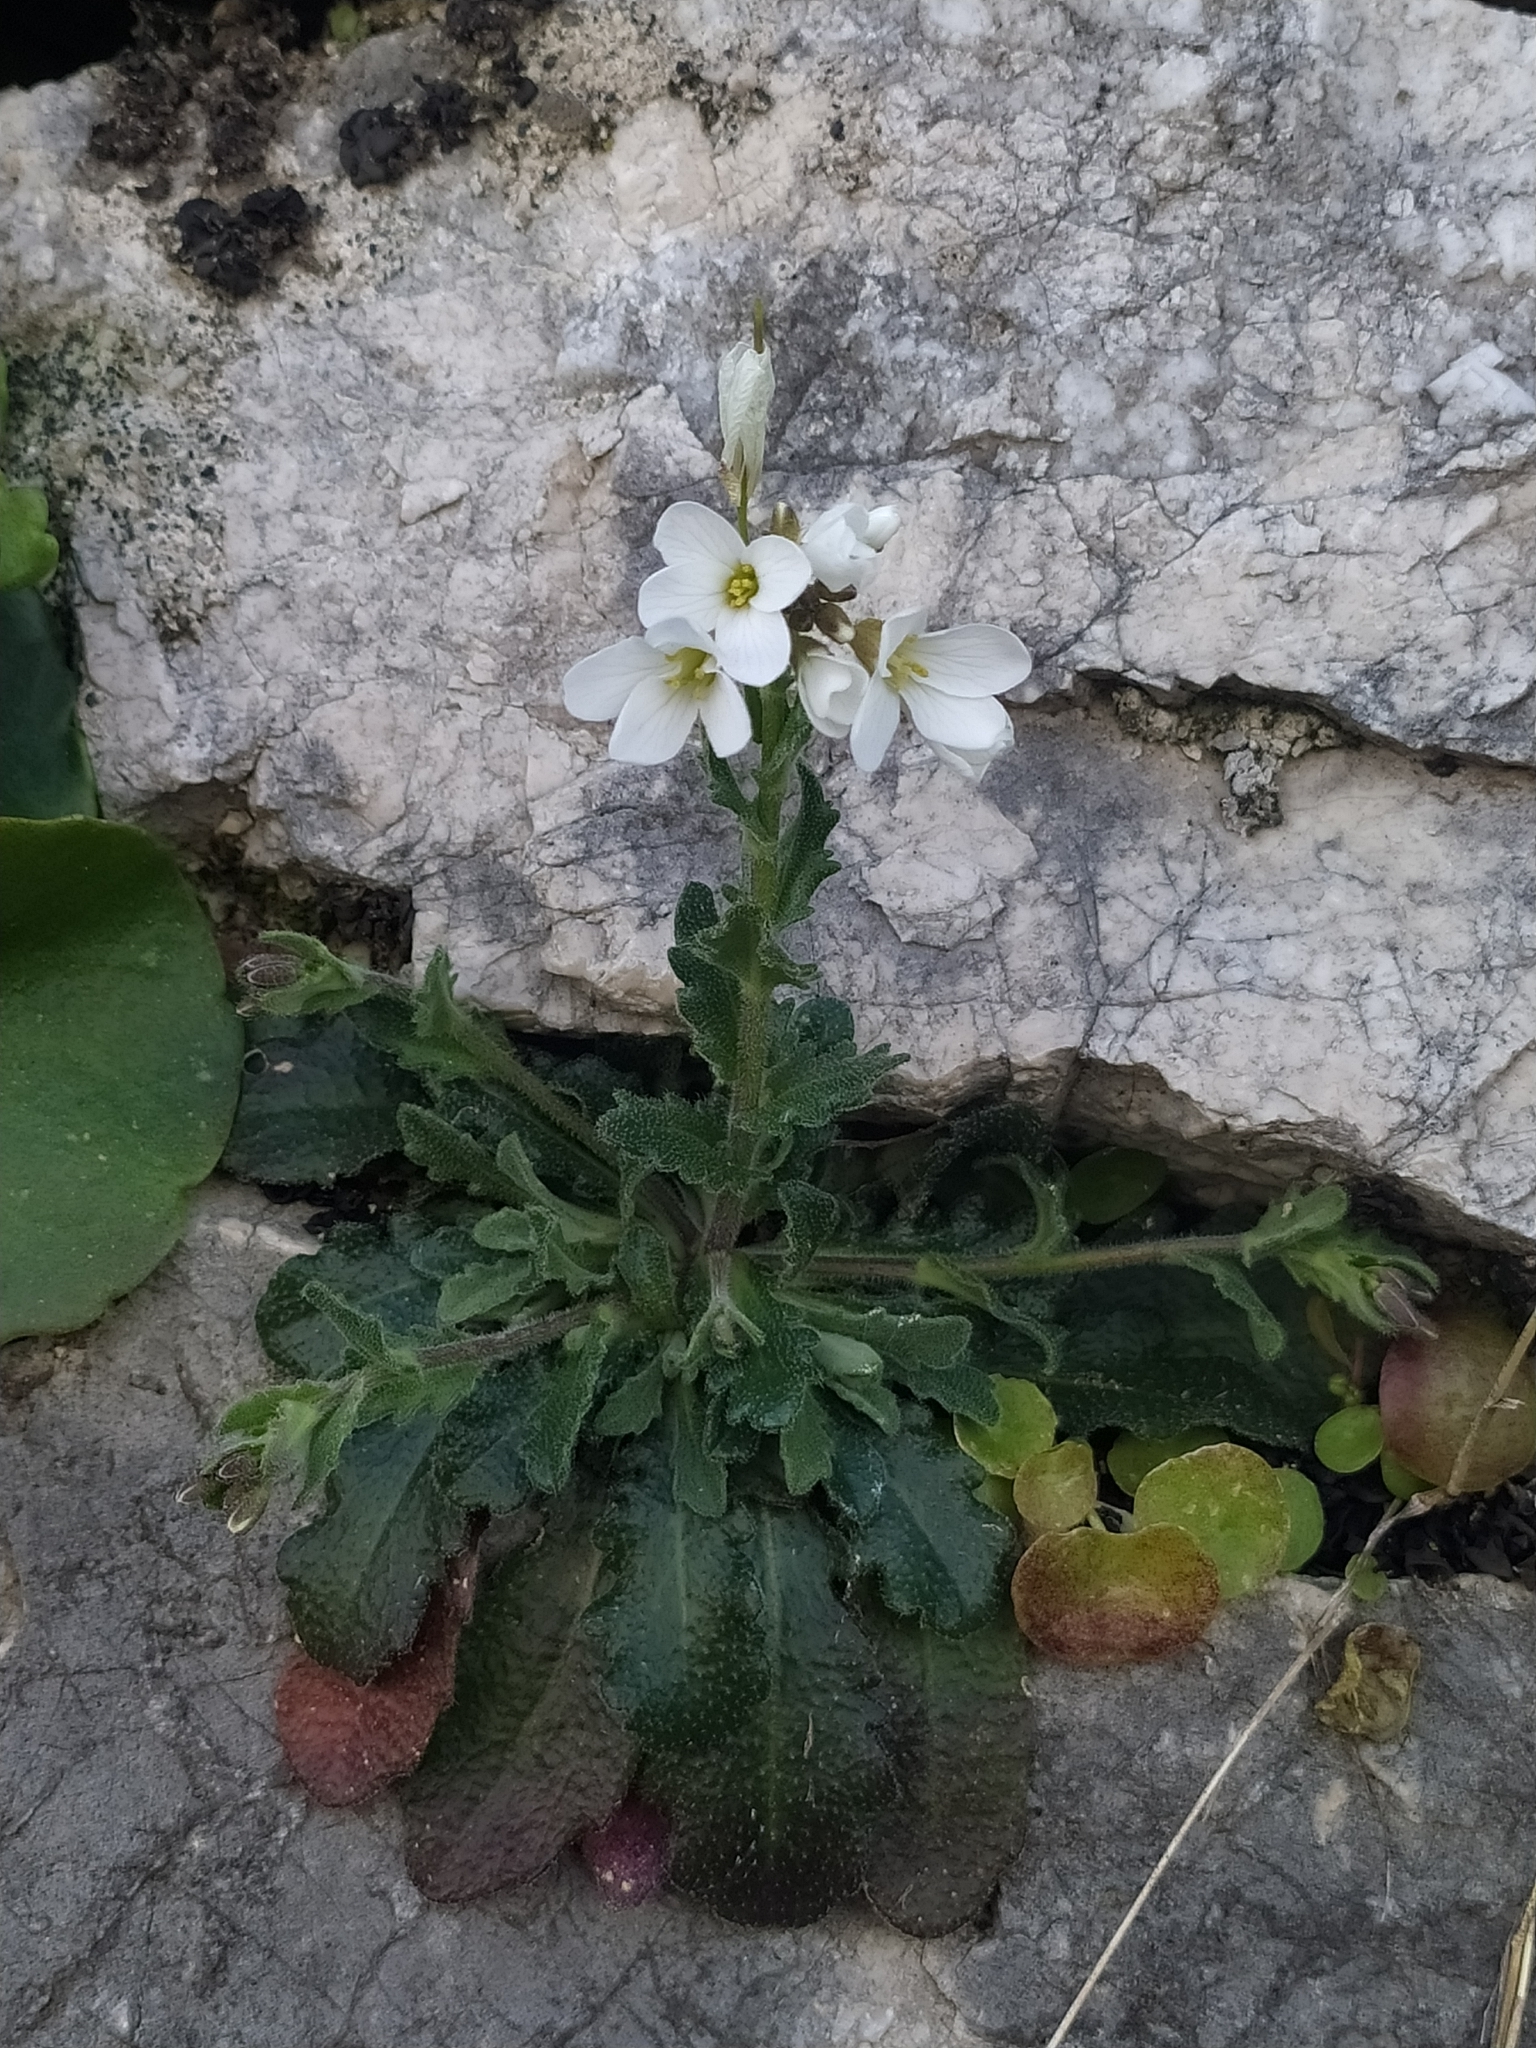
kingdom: Plantae
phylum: Tracheophyta
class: Magnoliopsida
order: Brassicales
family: Brassicaceae
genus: Arabis
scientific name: Arabis collina
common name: Rosy cress
